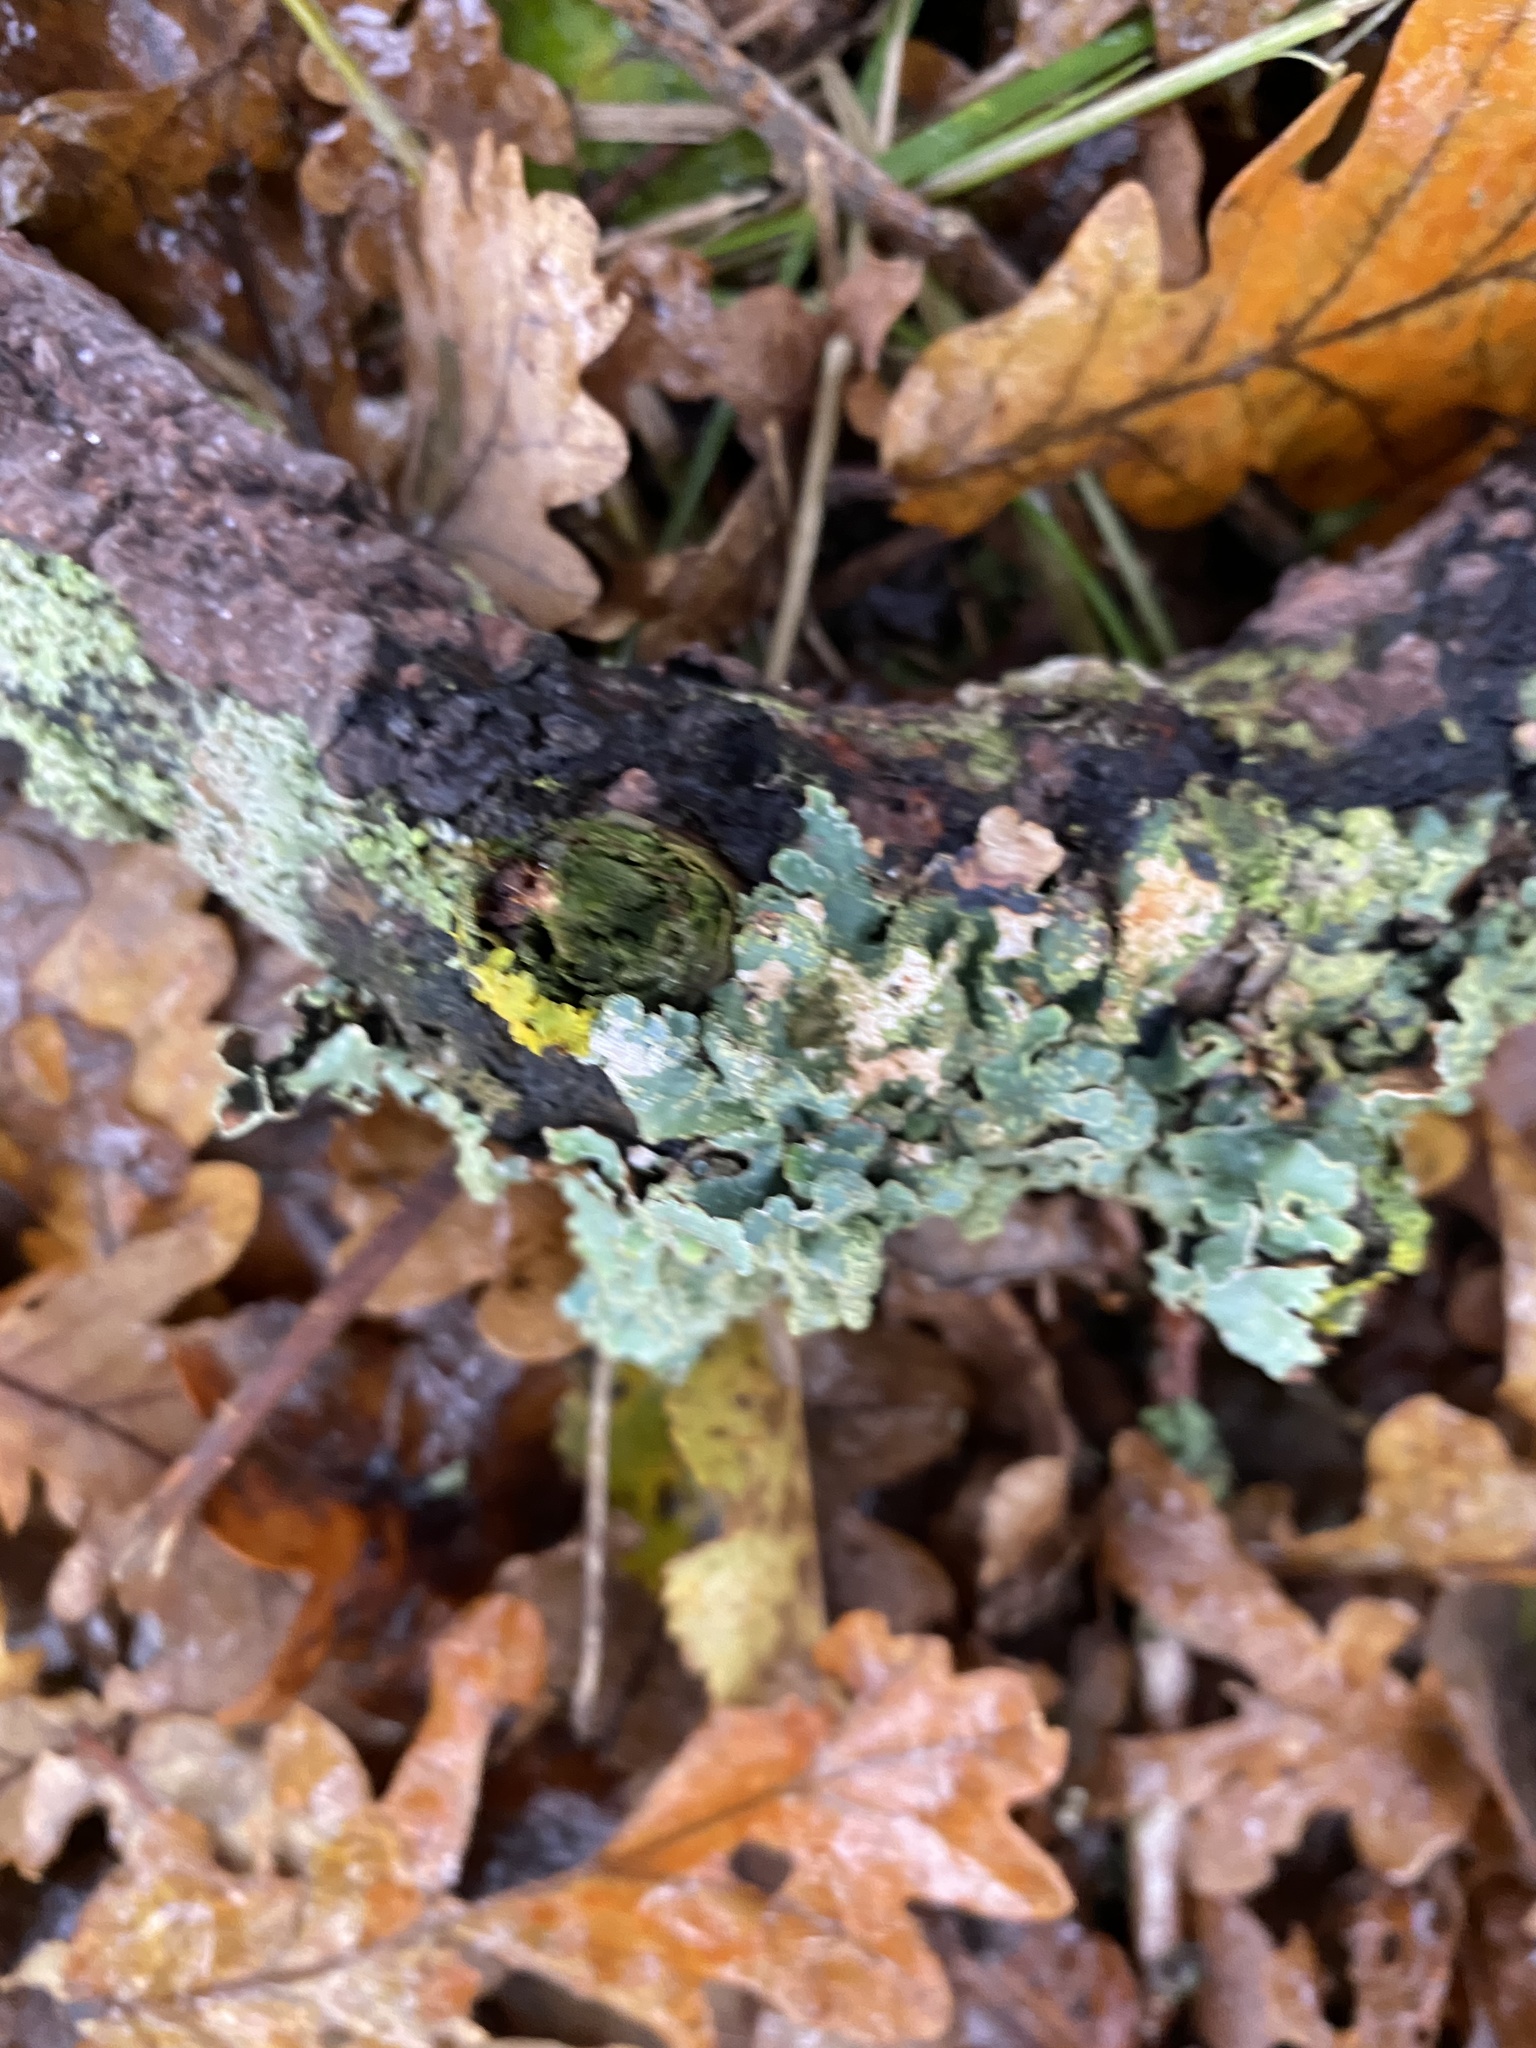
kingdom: Fungi
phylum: Ascomycota
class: Lecanoromycetes
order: Lecanorales
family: Parmeliaceae
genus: Parmelia
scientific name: Parmelia sulcata
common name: Netted shield lichen
